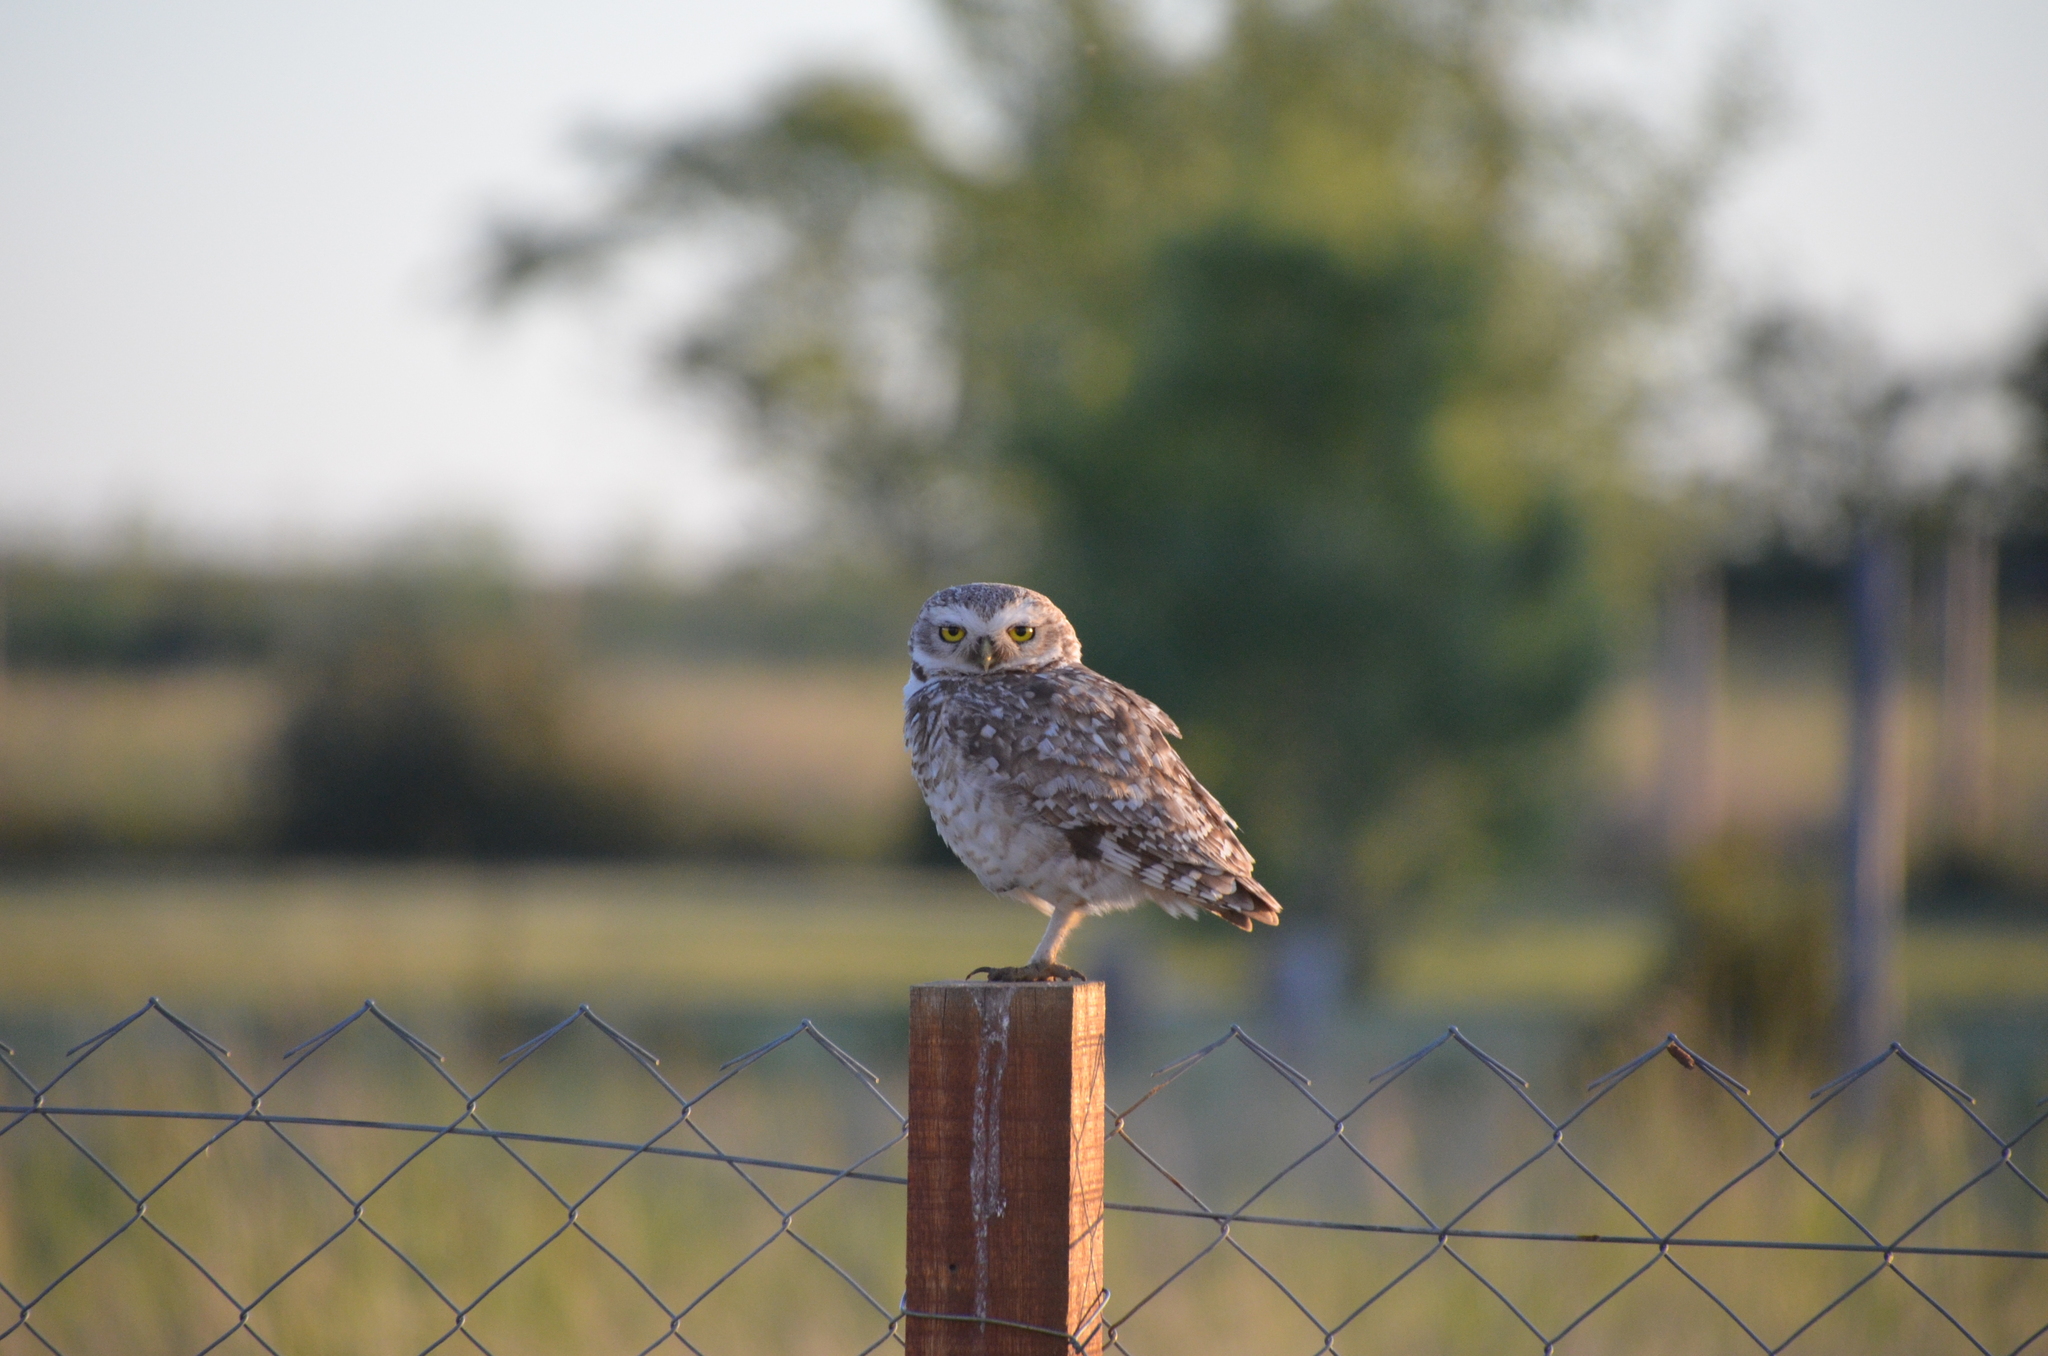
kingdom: Animalia
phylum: Chordata
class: Aves
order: Strigiformes
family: Strigidae
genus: Athene
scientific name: Athene cunicularia
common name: Burrowing owl
